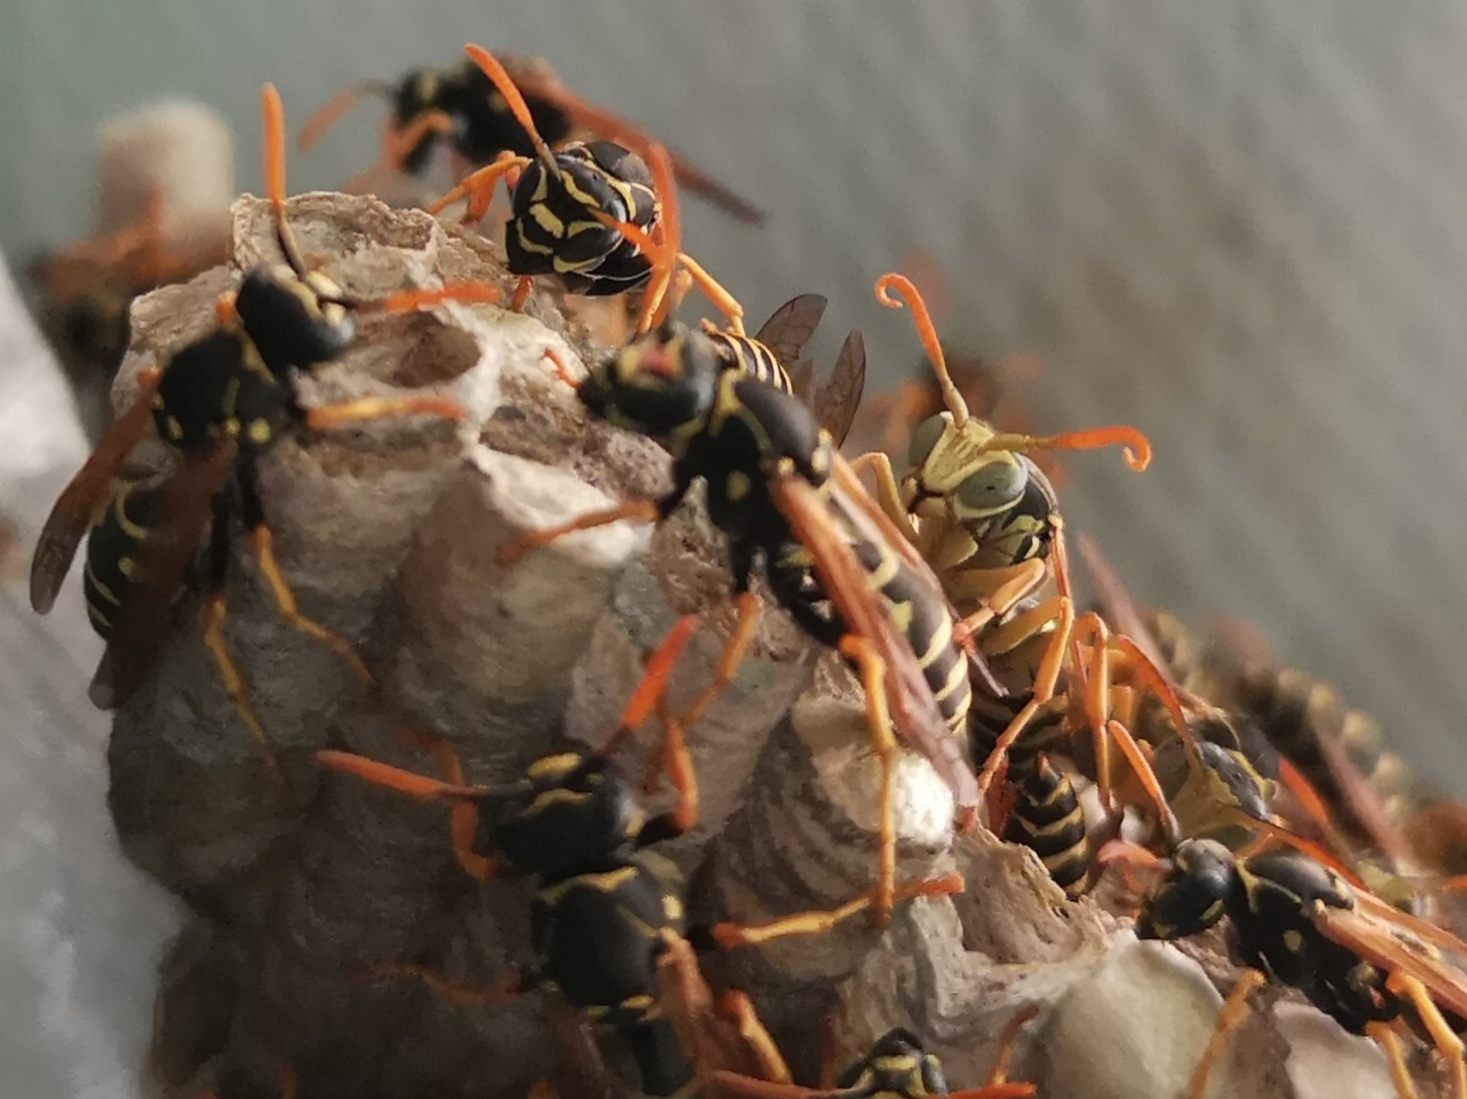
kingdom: Animalia
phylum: Arthropoda
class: Insecta
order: Hymenoptera
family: Eumenidae
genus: Polistes
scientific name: Polistes nimpha
